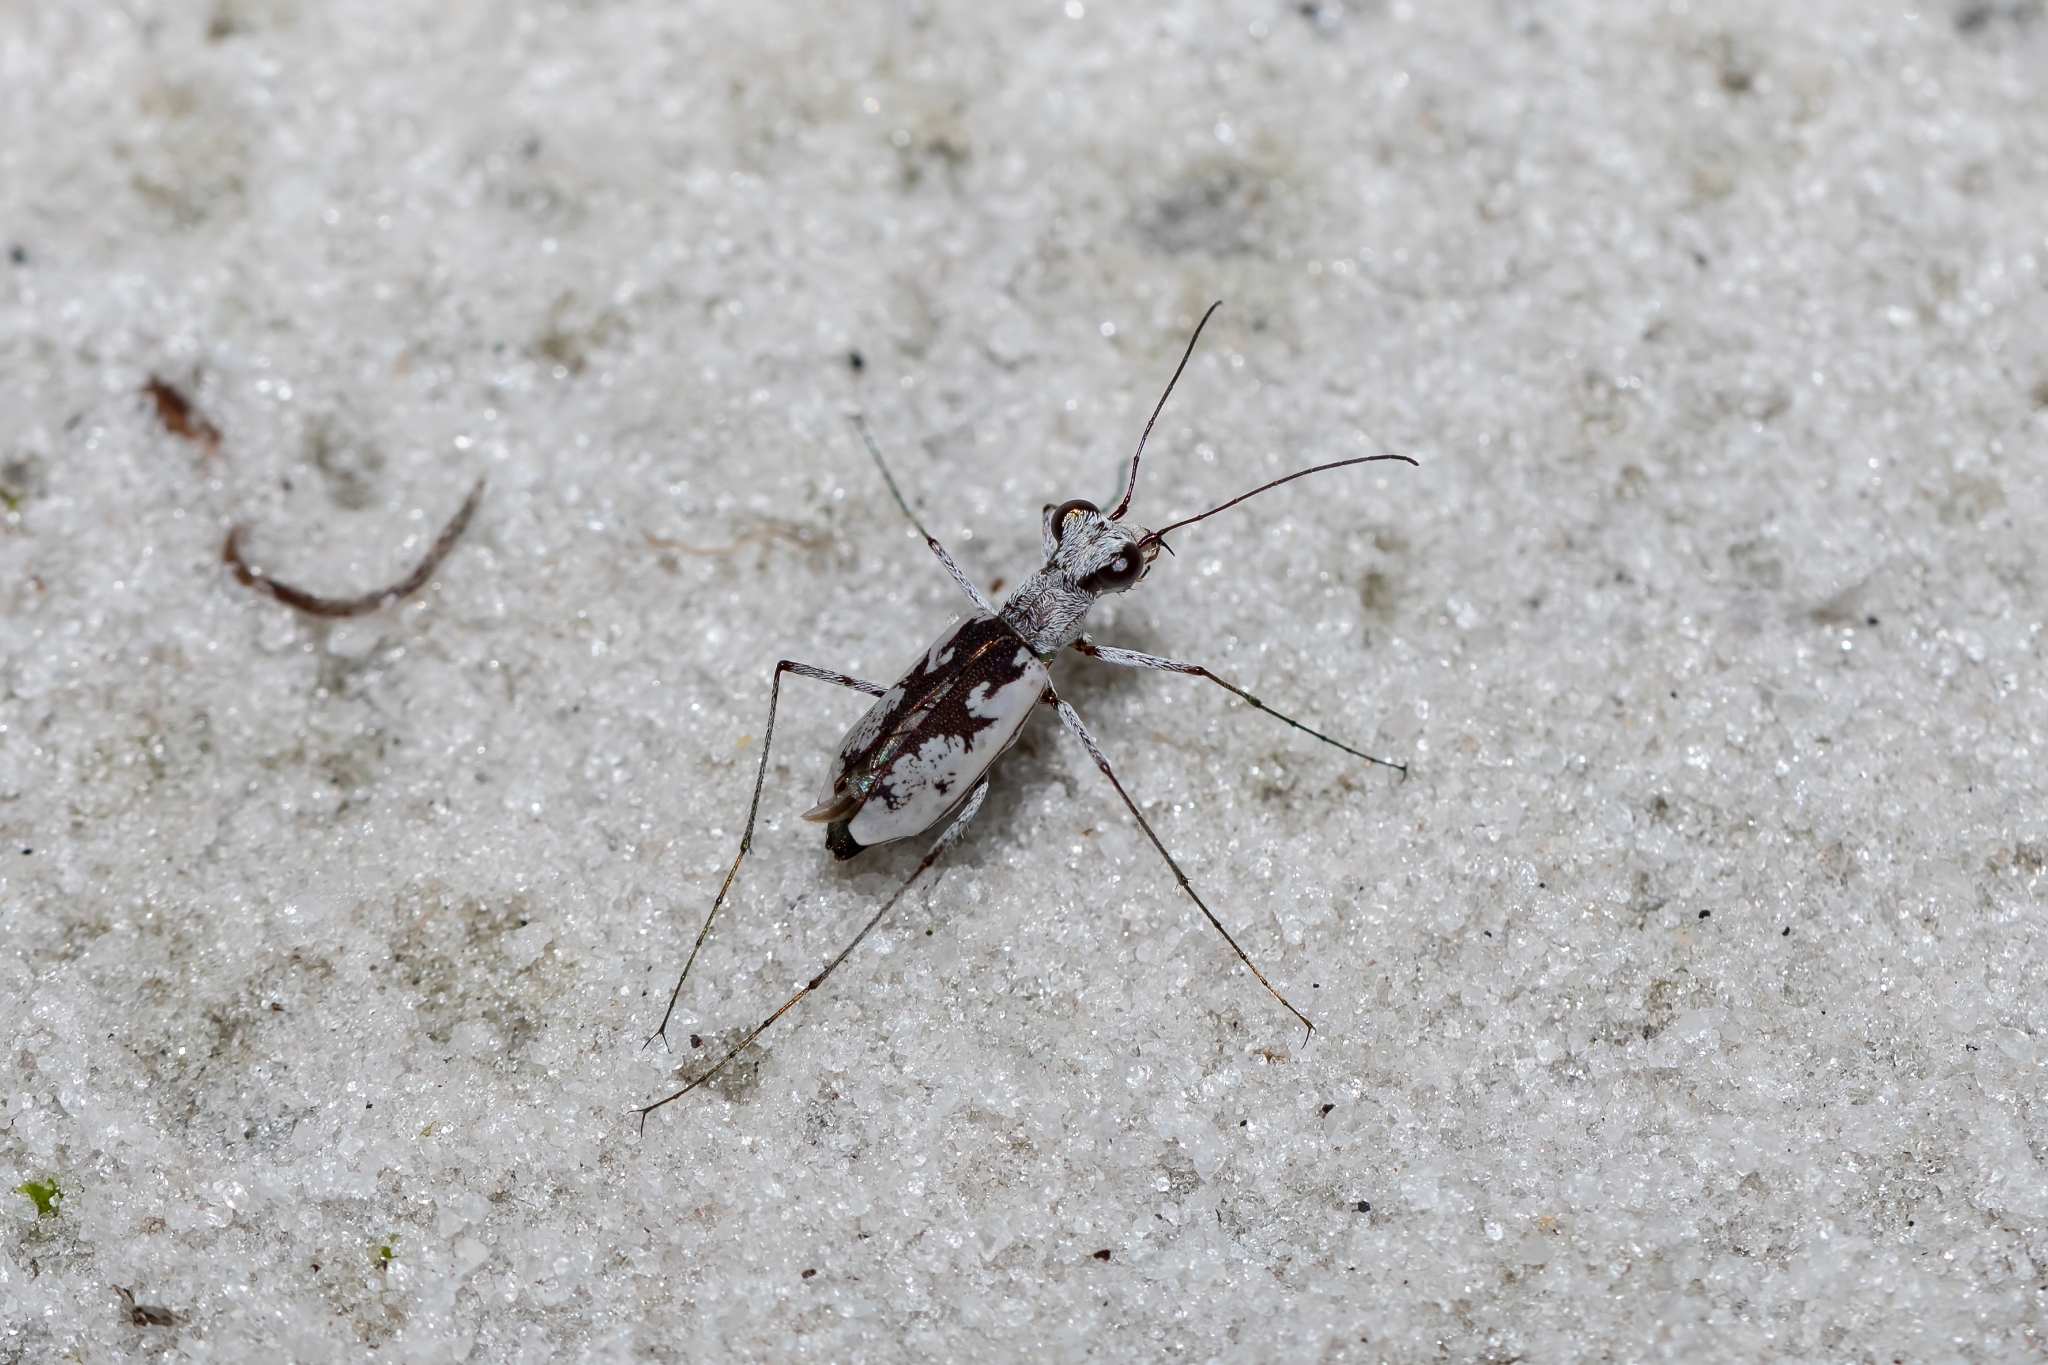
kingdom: Animalia
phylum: Arthropoda
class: Insecta
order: Coleoptera
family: Carabidae
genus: Ellipsoptera
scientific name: Ellipsoptera hirtilabris
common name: Moustached tiger beetle
